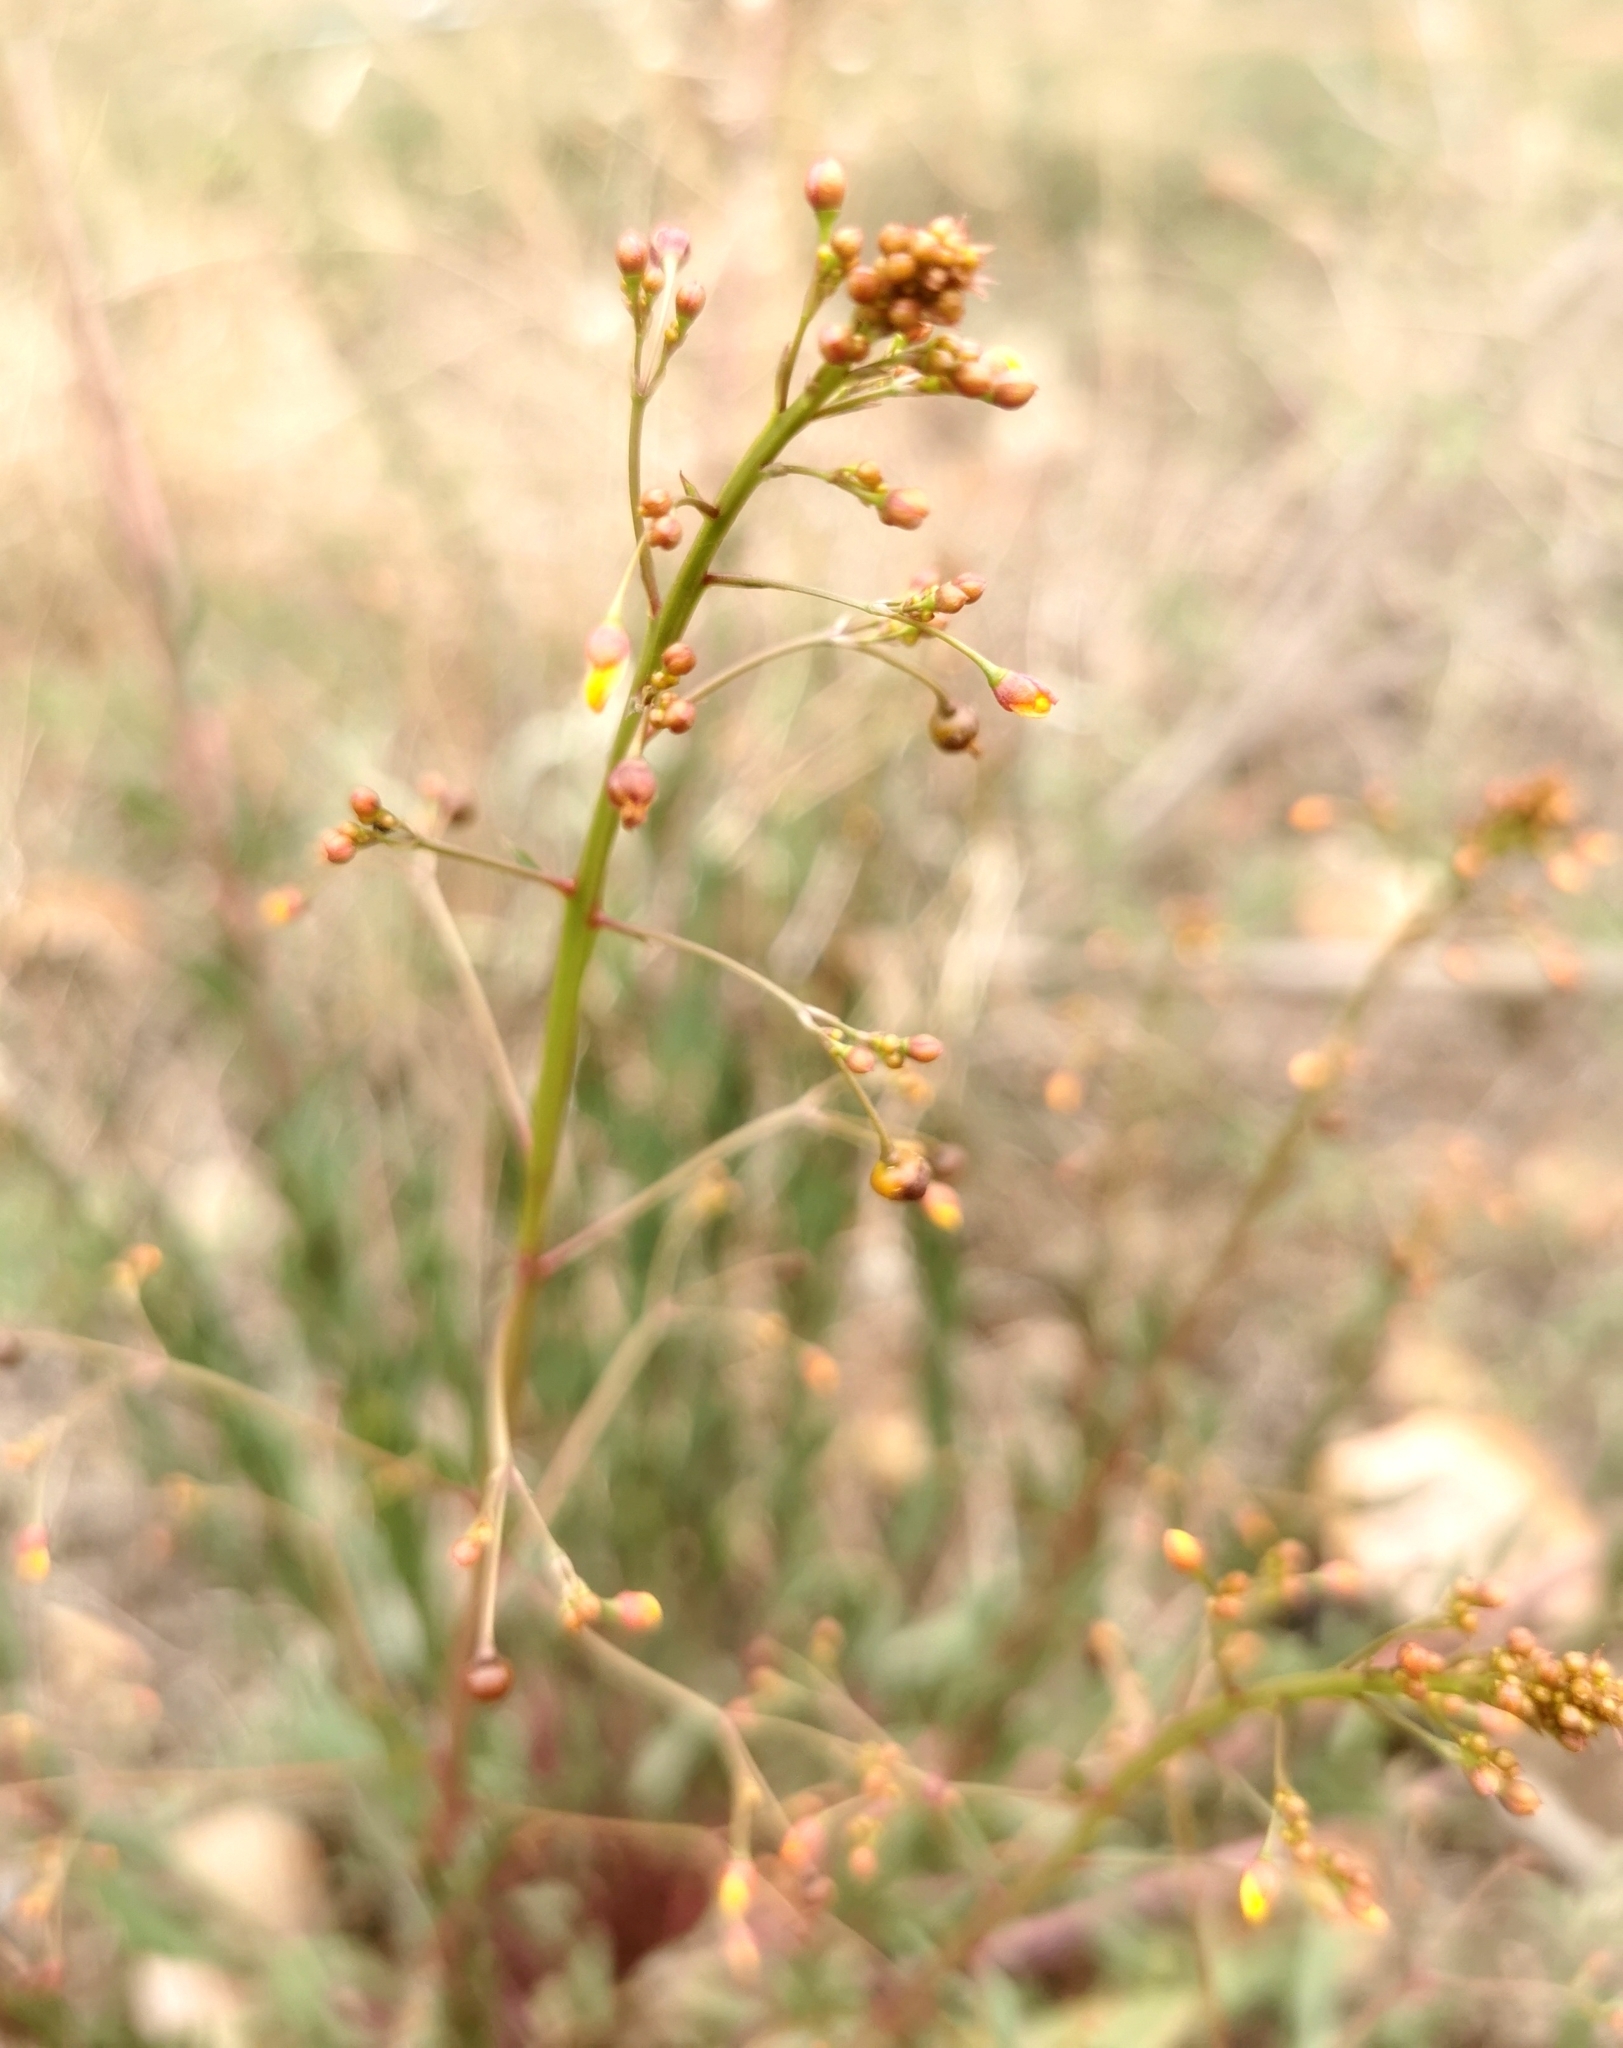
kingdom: Plantae
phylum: Tracheophyta
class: Magnoliopsida
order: Caryophyllales
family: Talinaceae
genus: Talinum
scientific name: Talinum paniculatum
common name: Jewels of opar
